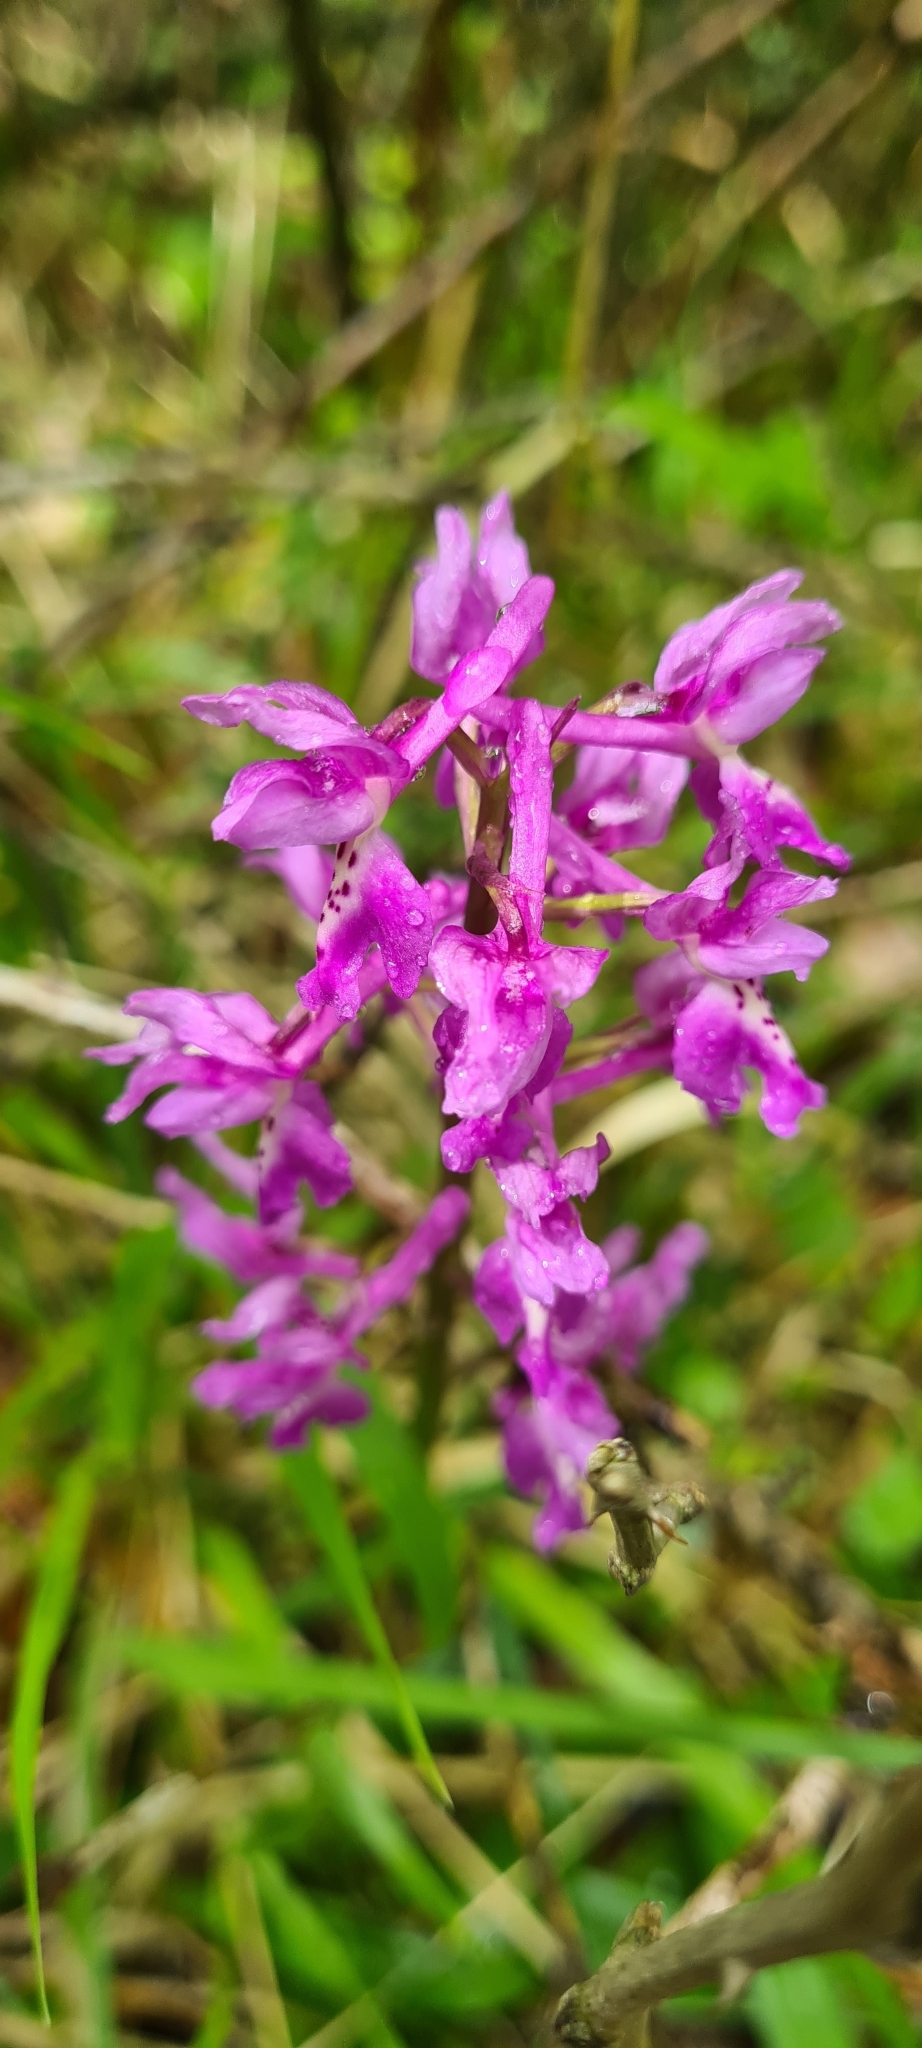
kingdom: Plantae
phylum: Tracheophyta
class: Liliopsida
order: Asparagales
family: Orchidaceae
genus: Orchis
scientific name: Orchis mascula
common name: Early-purple orchid
